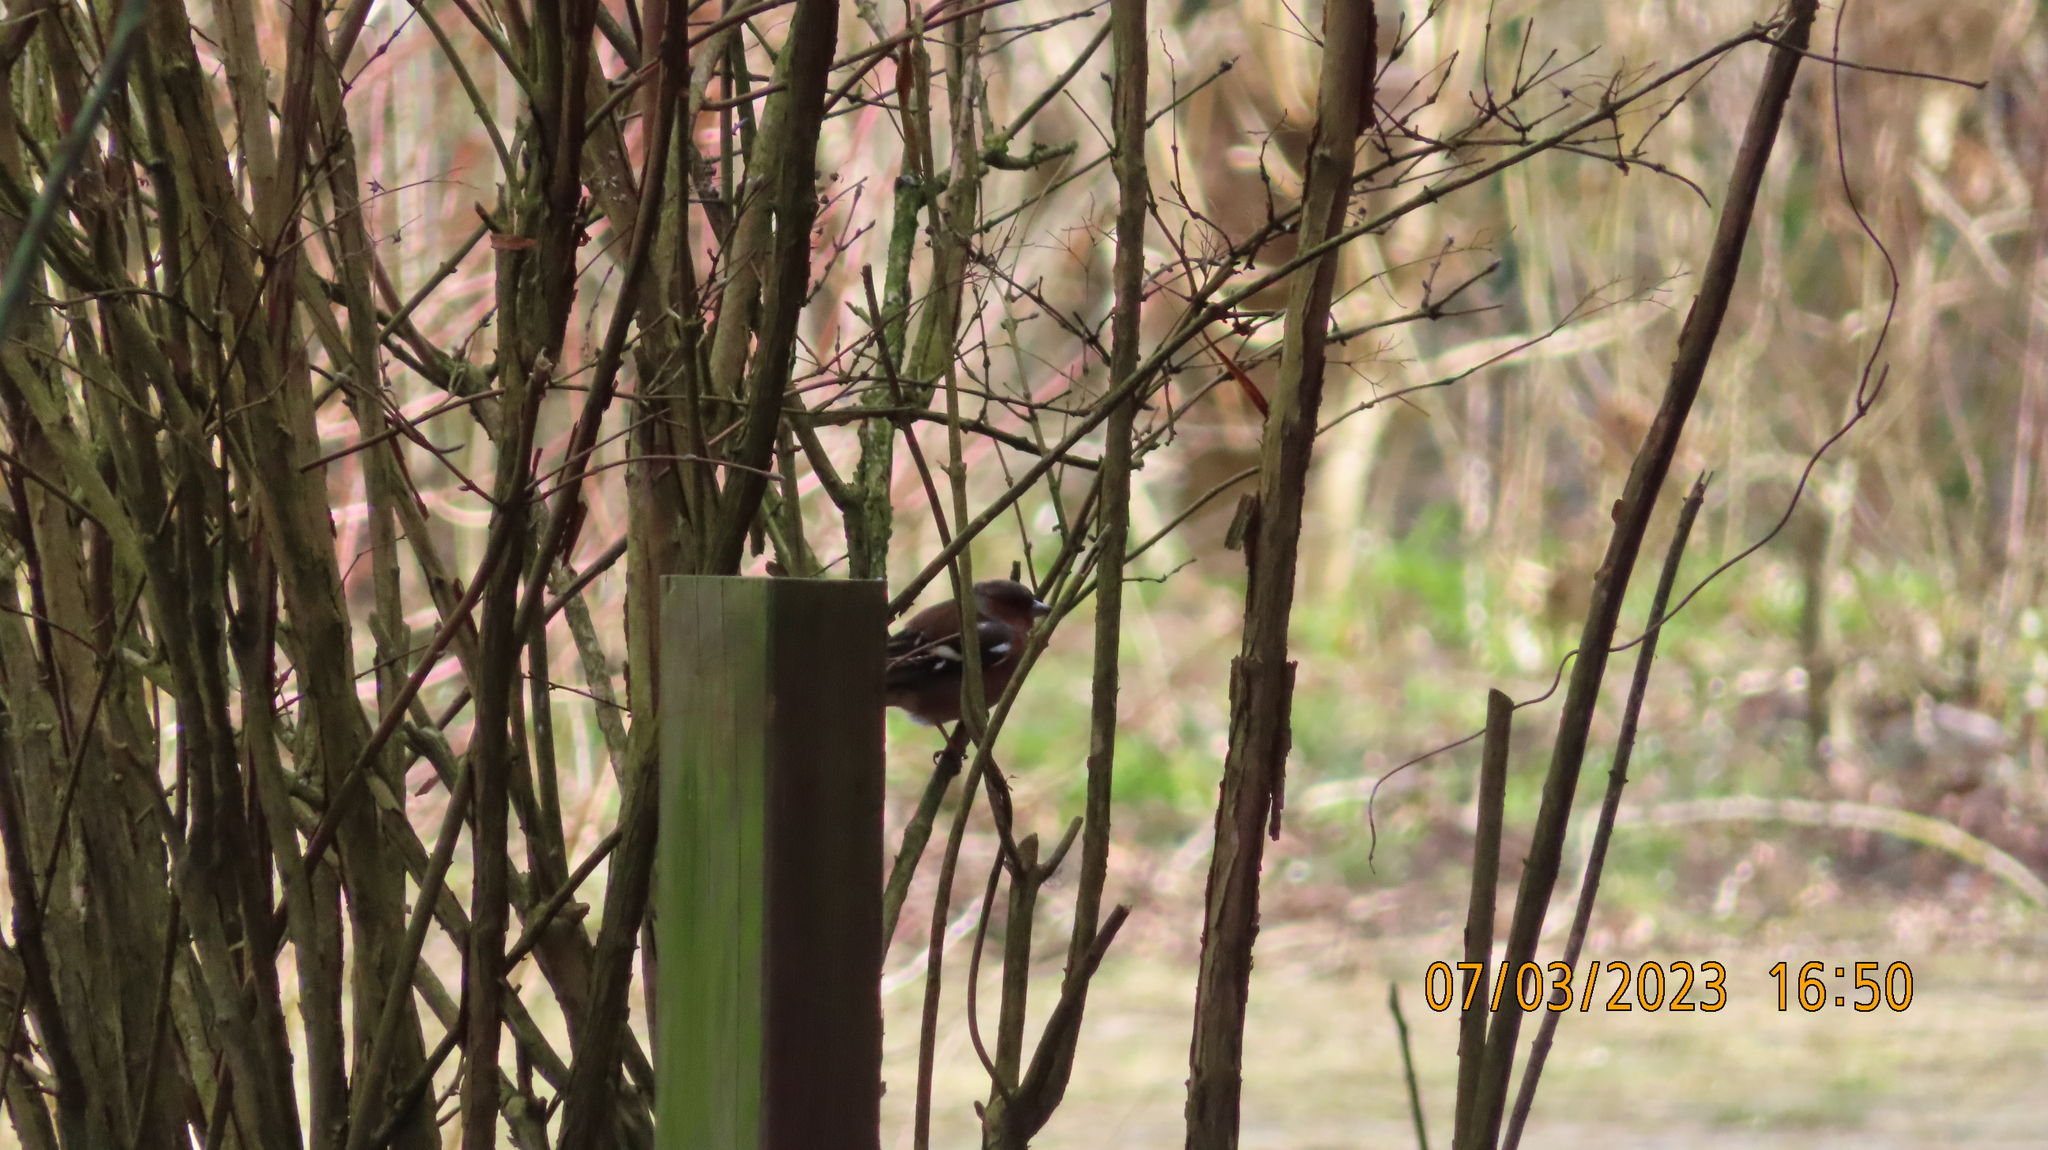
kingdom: Animalia
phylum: Chordata
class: Aves
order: Passeriformes
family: Fringillidae
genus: Fringilla
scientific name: Fringilla coelebs
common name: Common chaffinch
